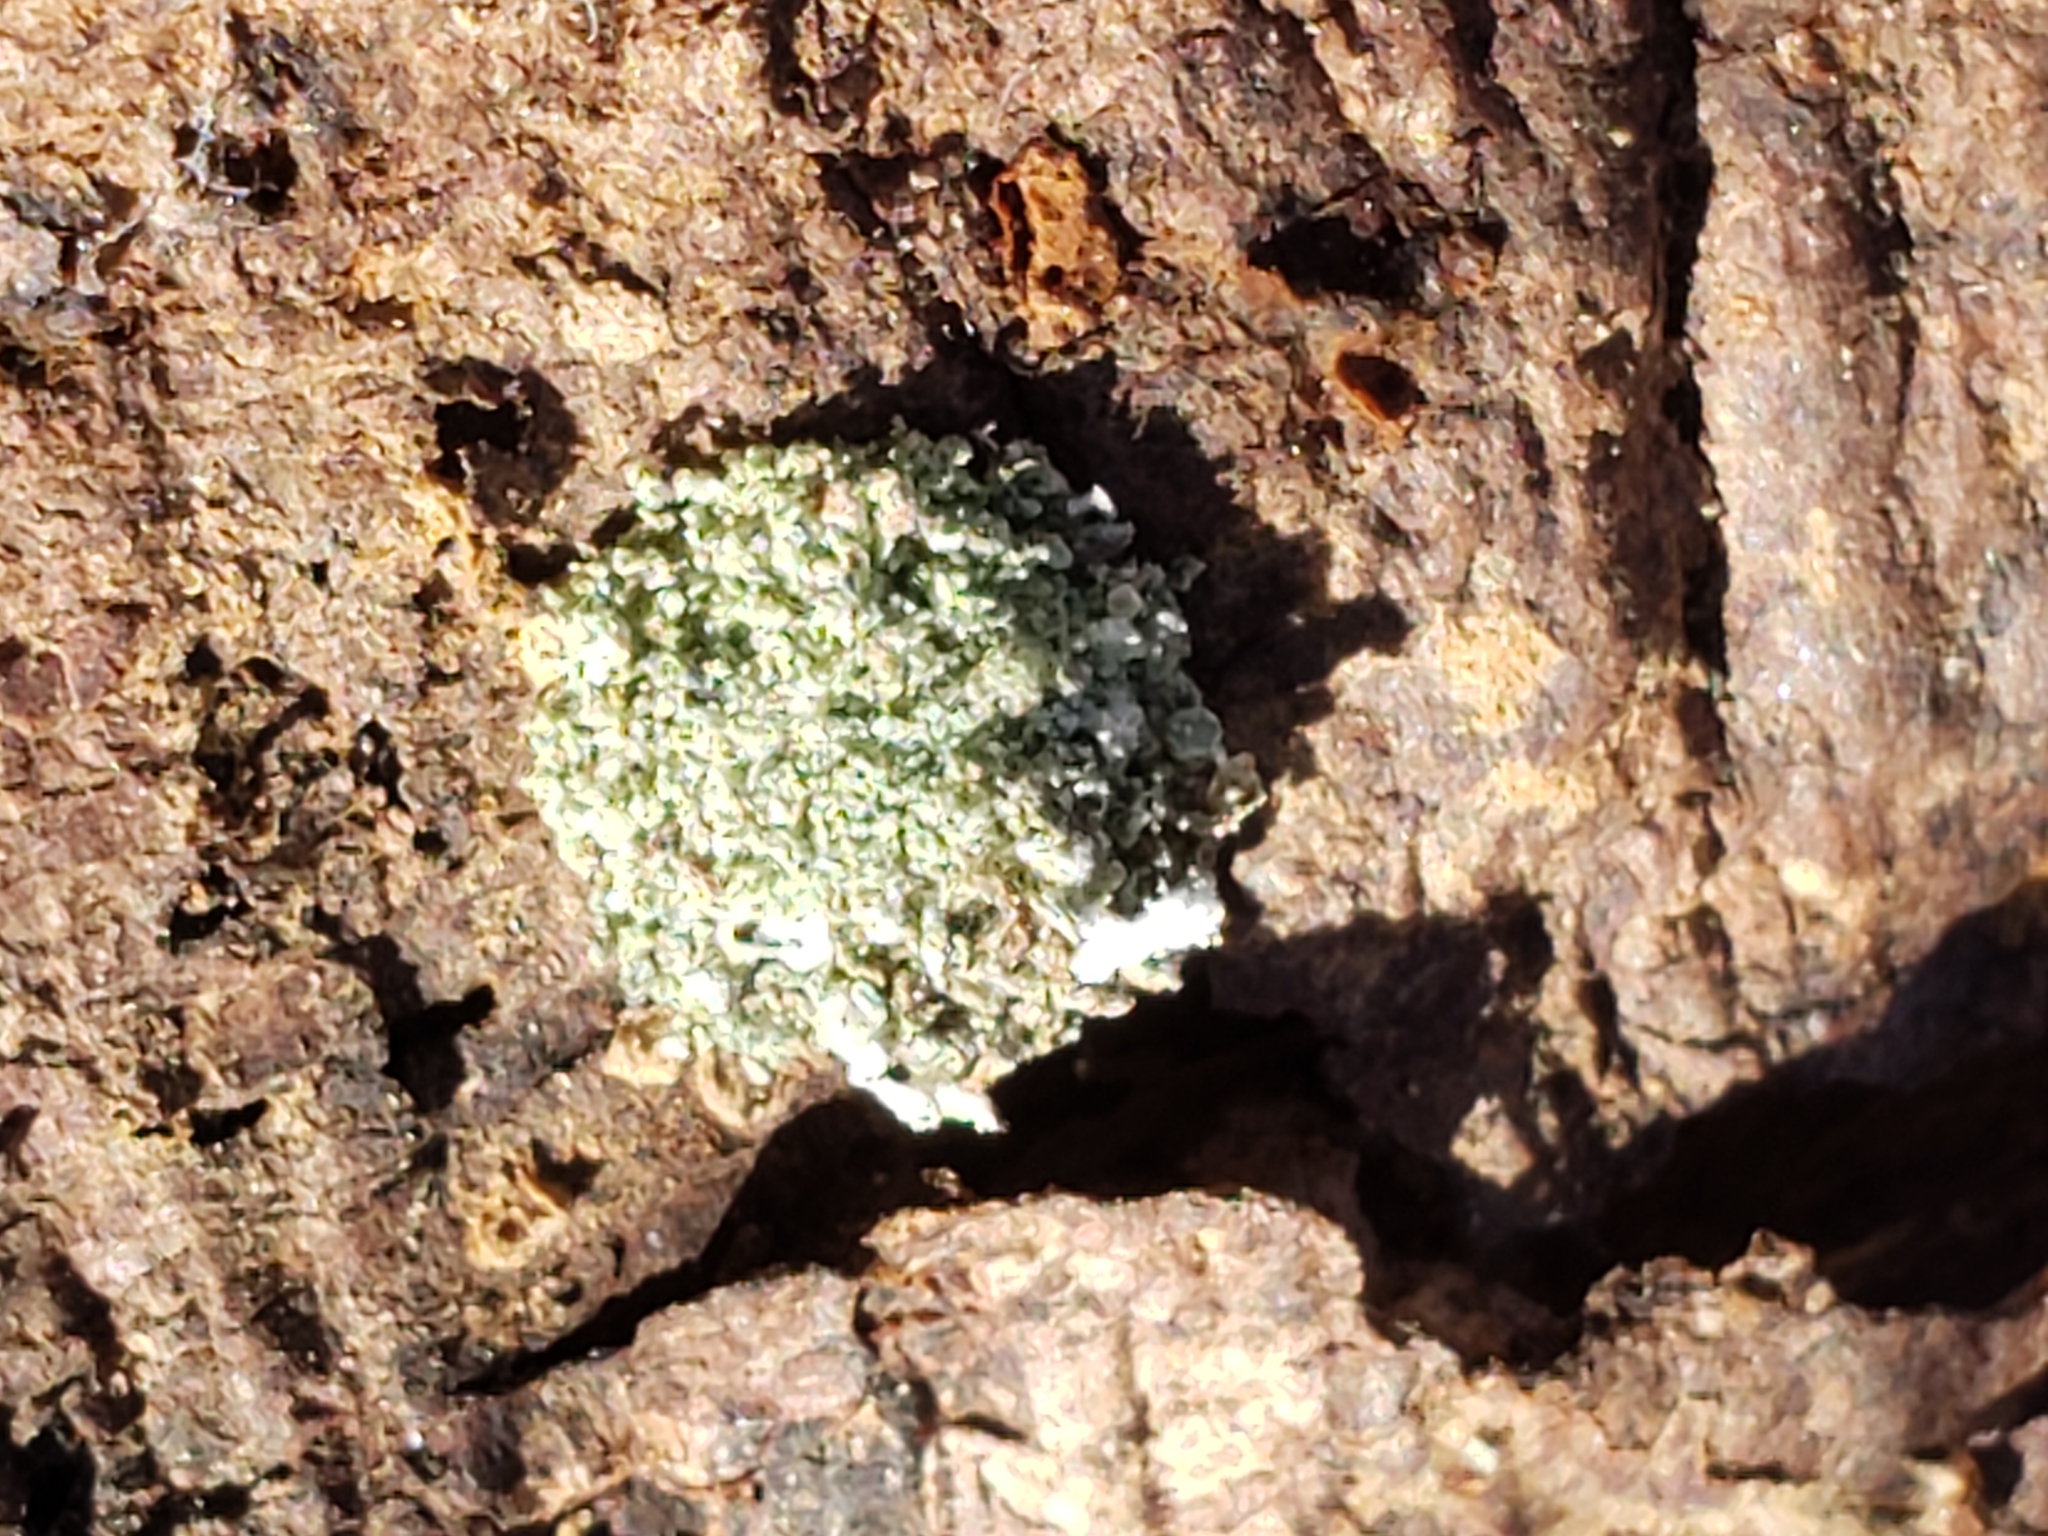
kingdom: Animalia
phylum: Arthropoda
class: Insecta
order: Neuroptera
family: Chrysopidae
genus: Leucochrysa
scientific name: Leucochrysa pavida
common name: Lichen-carrying green lacewing
